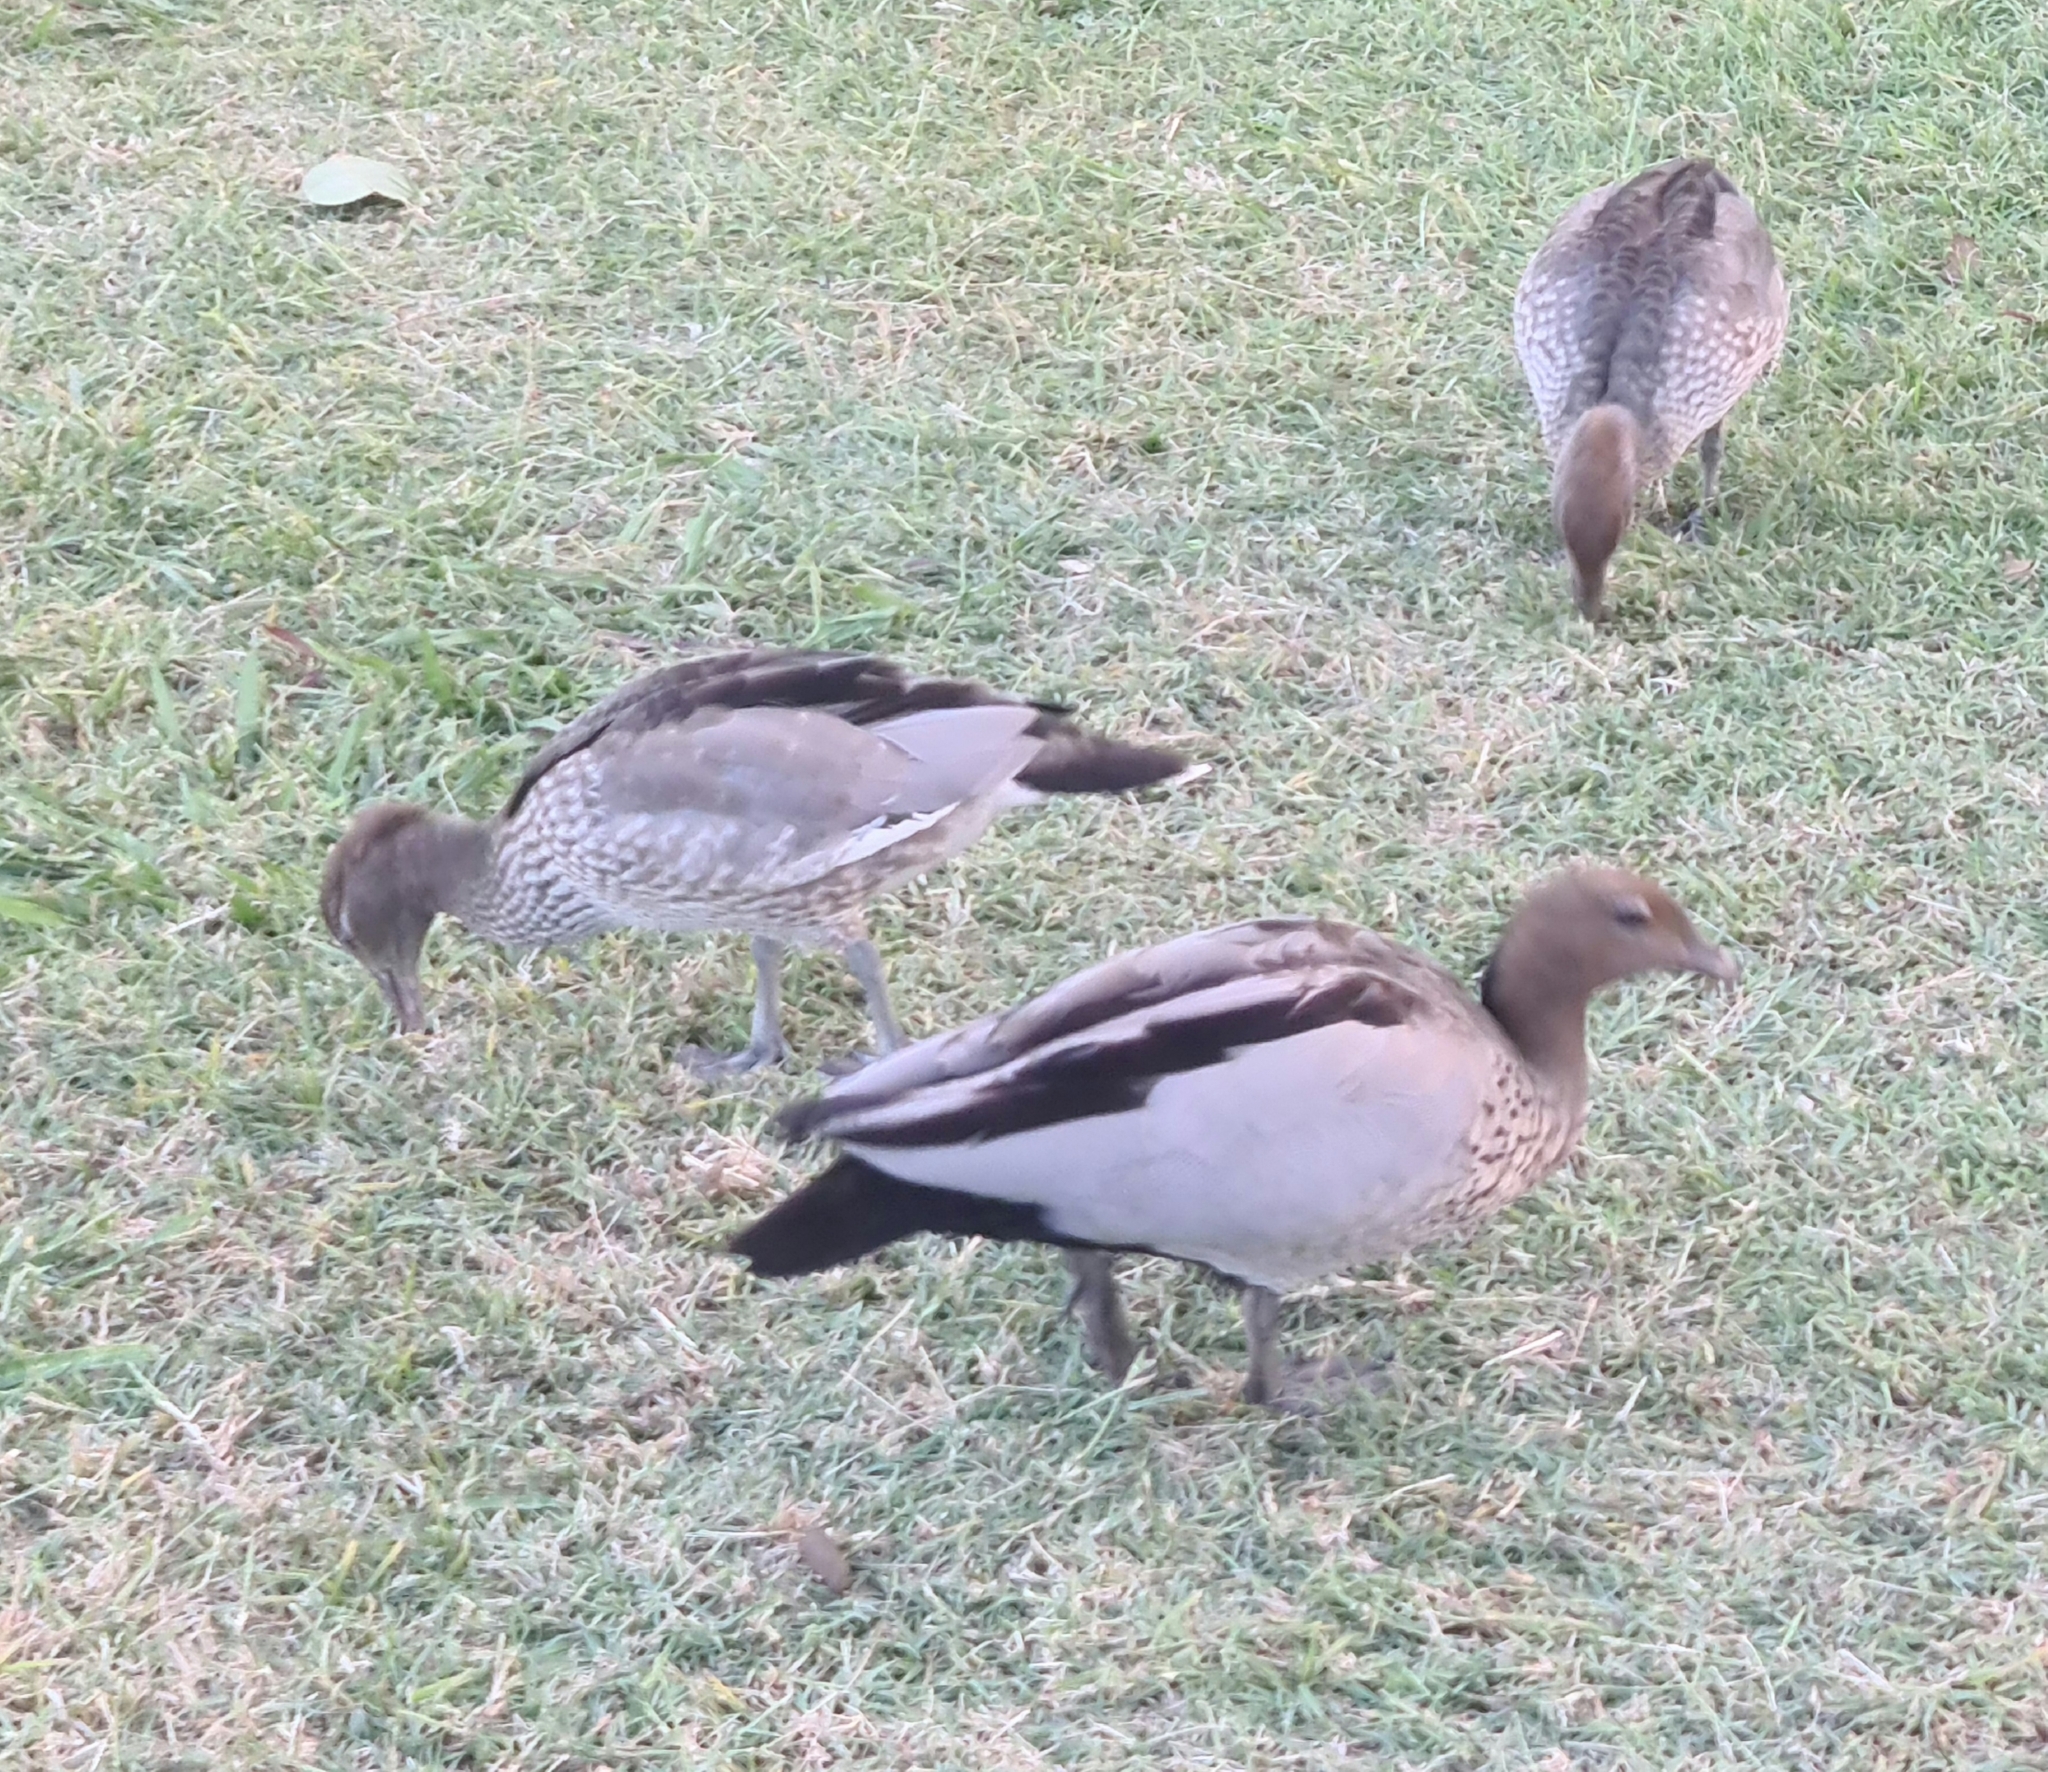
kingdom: Animalia
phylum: Chordata
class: Aves
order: Anseriformes
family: Anatidae
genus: Chenonetta
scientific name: Chenonetta jubata
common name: Maned duck
